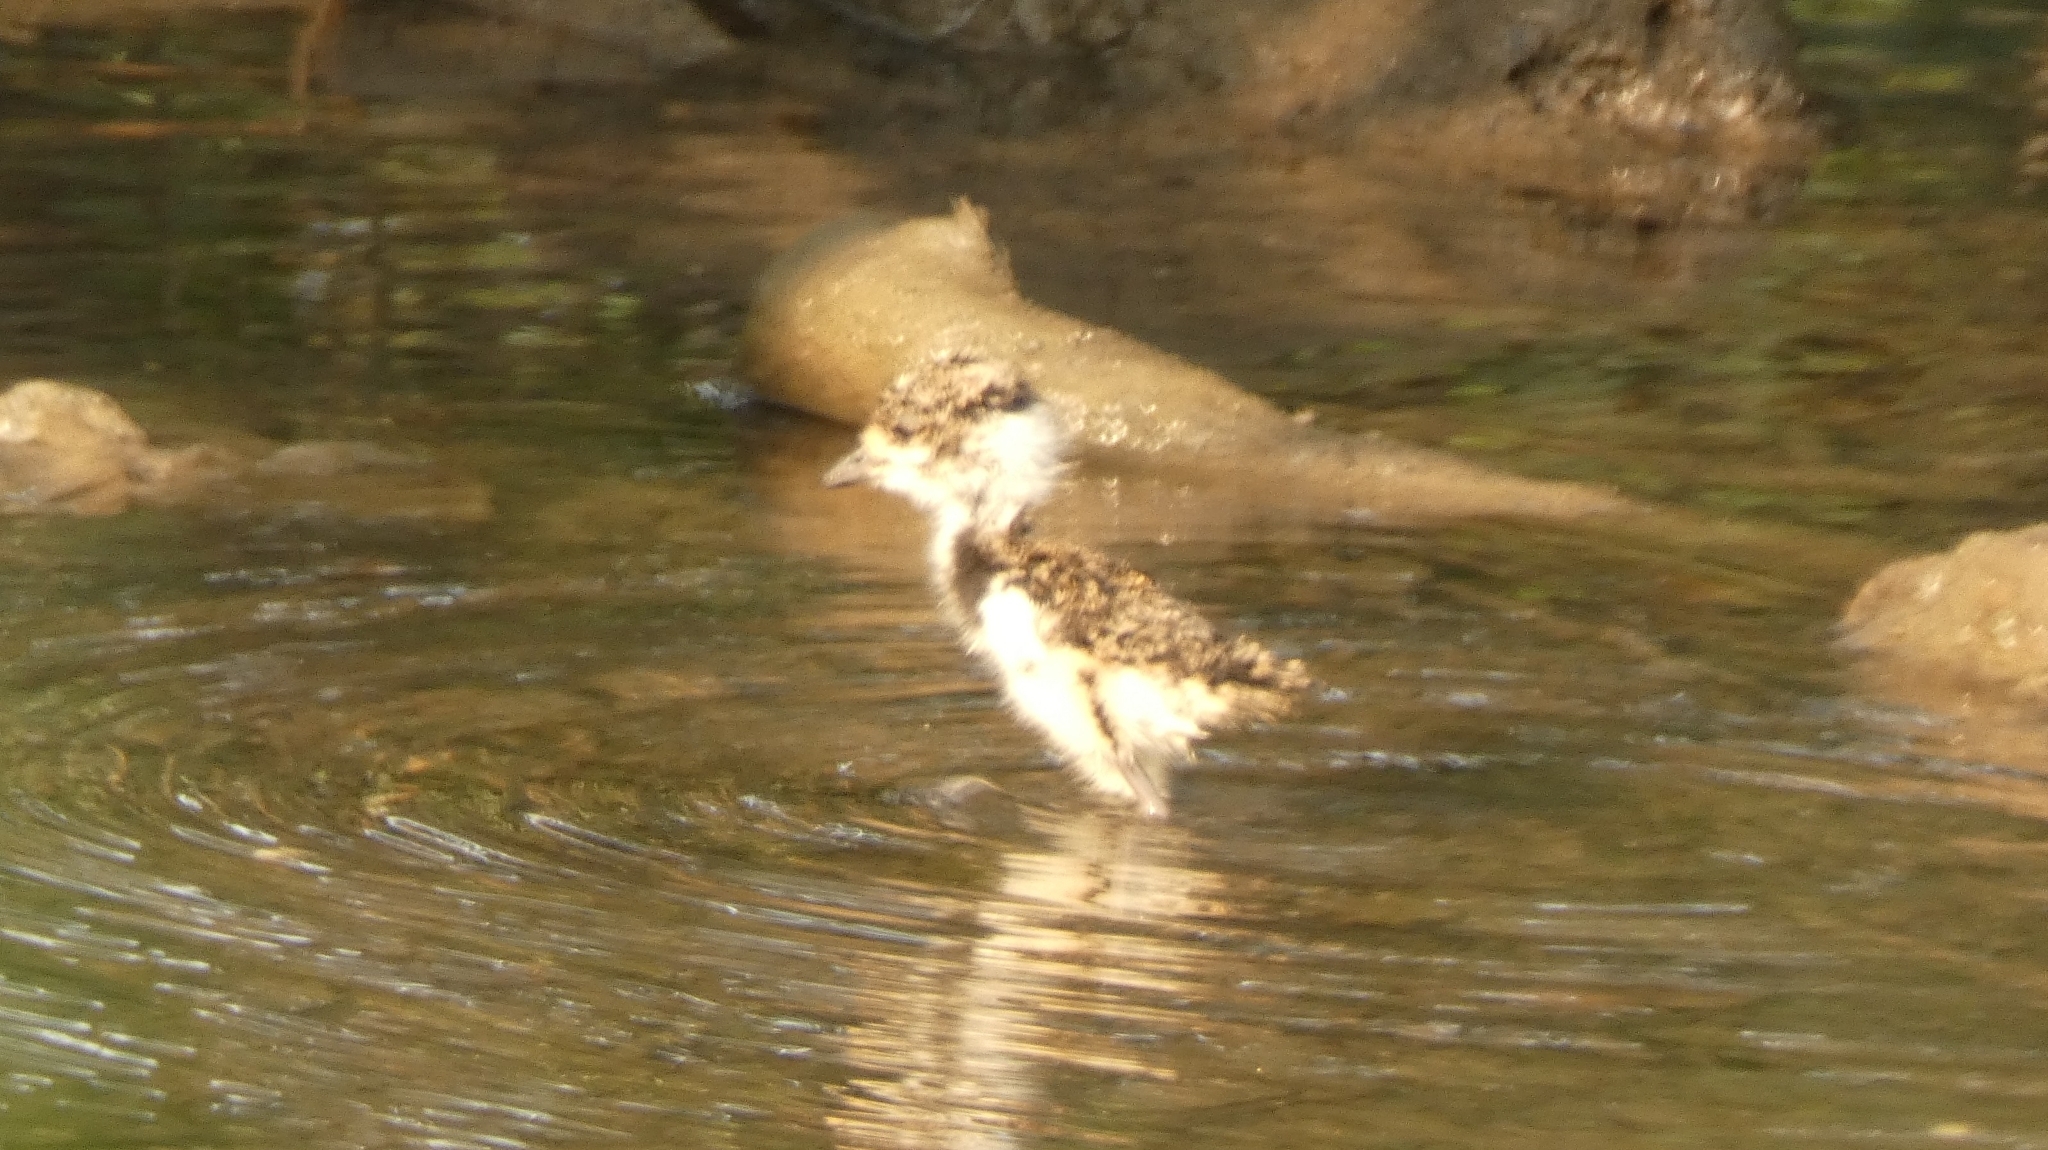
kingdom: Animalia
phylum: Chordata
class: Aves
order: Charadriiformes
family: Charadriidae
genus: Vanellus
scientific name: Vanellus chilensis
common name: Southern lapwing
